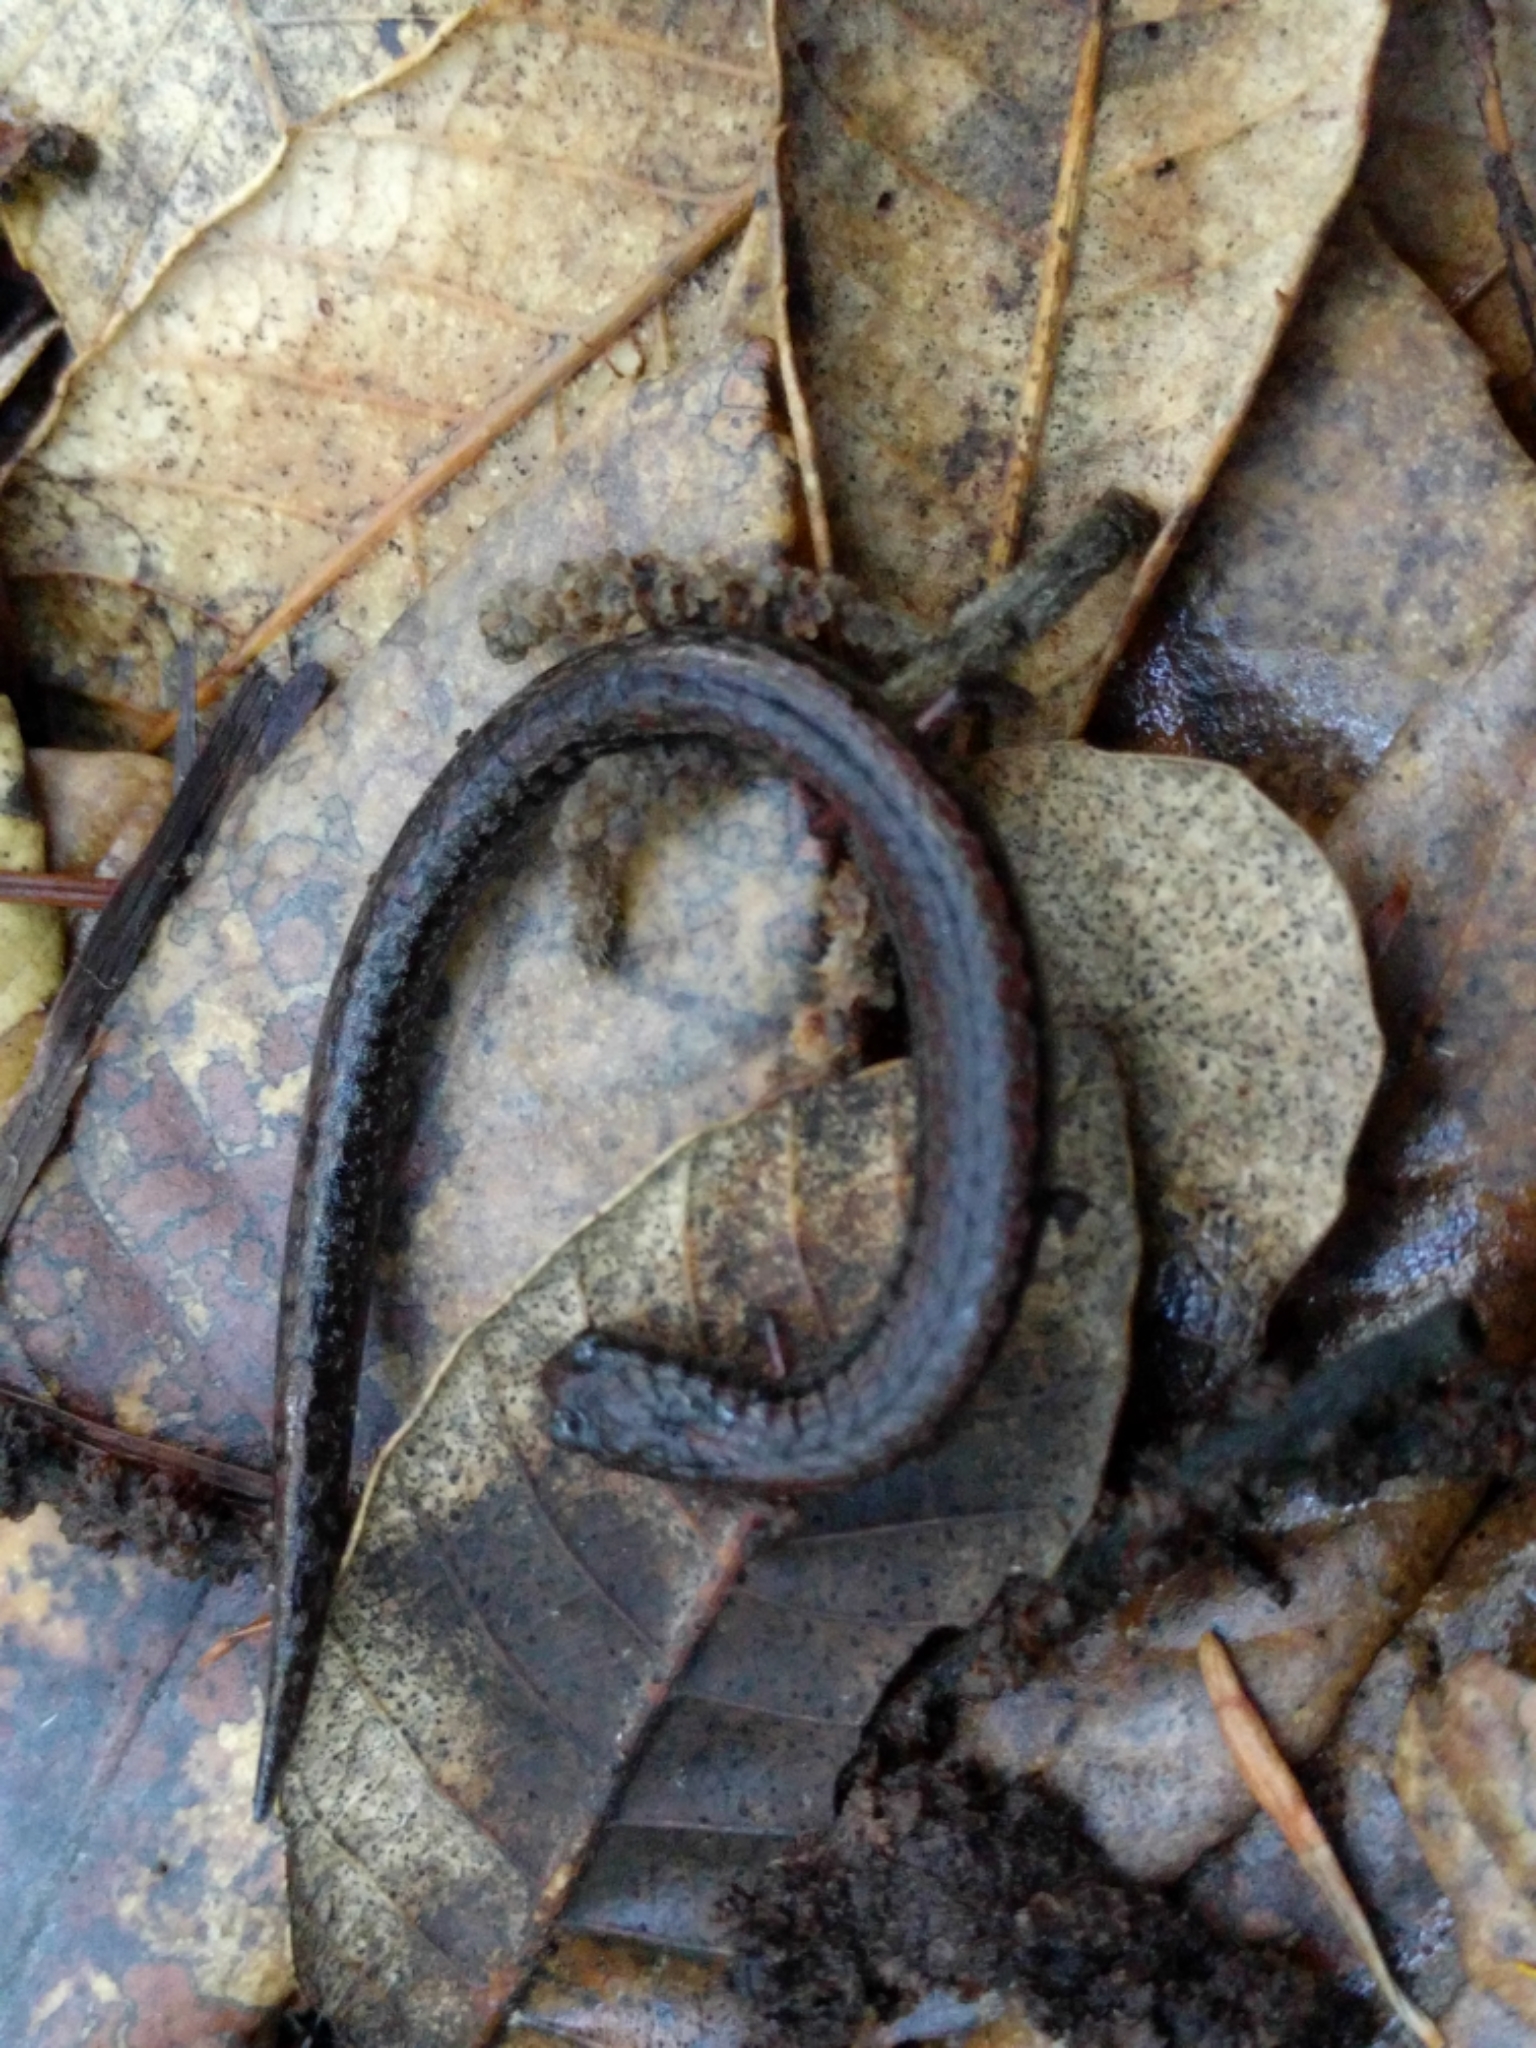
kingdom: Animalia
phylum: Chordata
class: Amphibia
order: Caudata
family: Plethodontidae
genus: Batrachoseps
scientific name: Batrachoseps attenuatus
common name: California slender salamander
